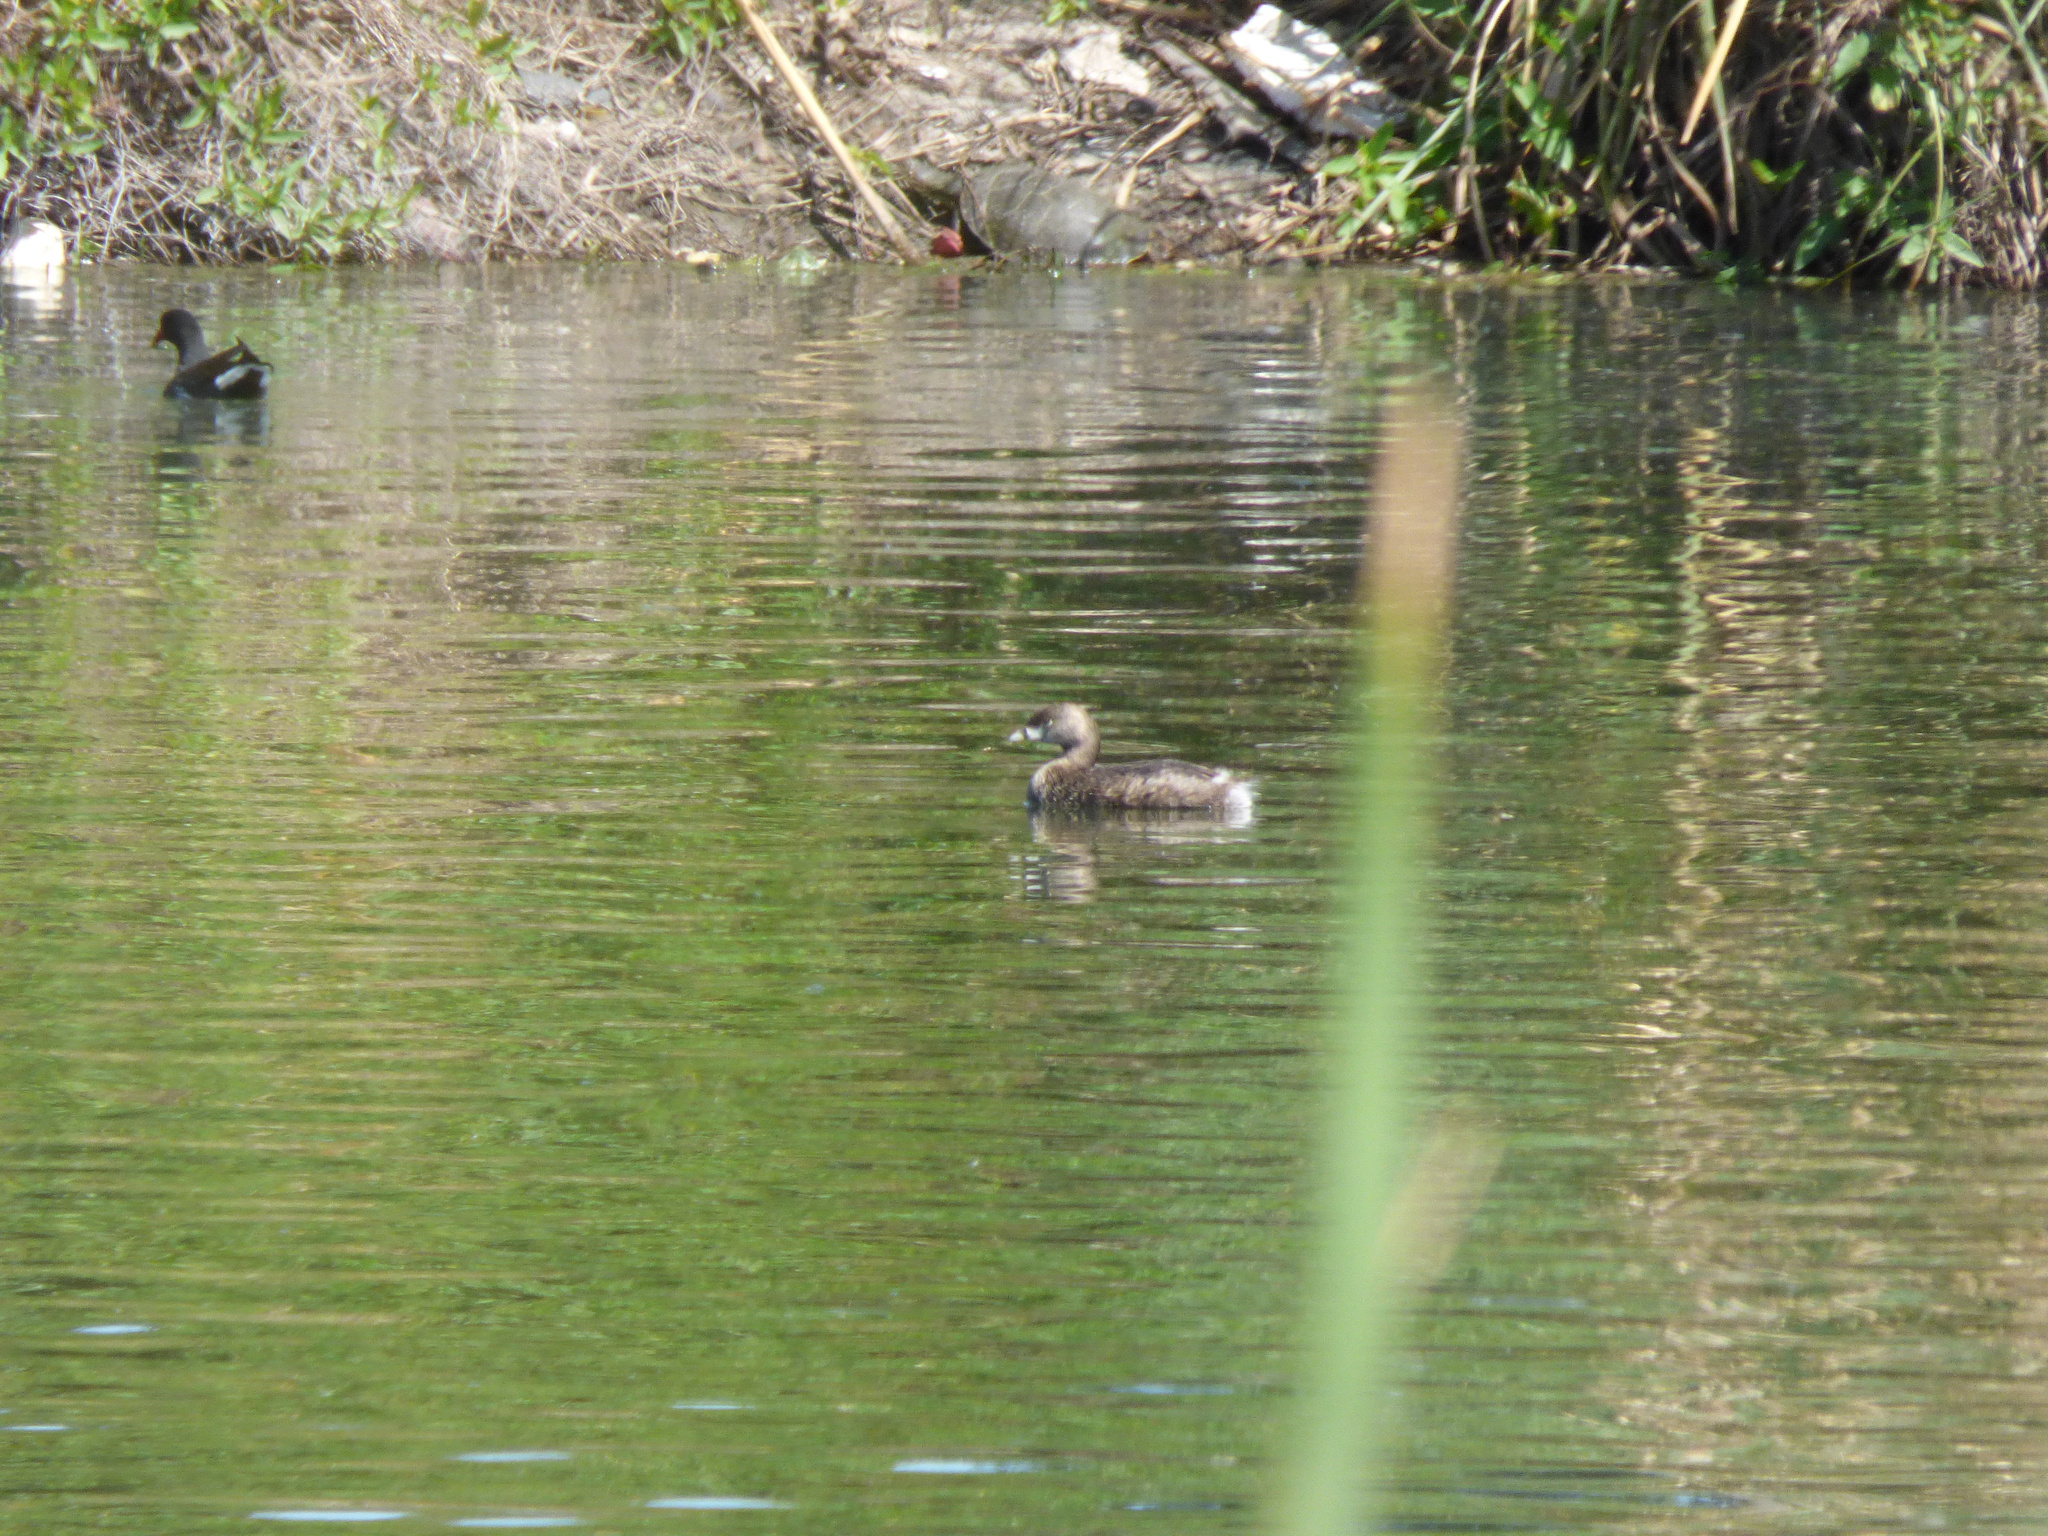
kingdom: Animalia
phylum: Chordata
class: Aves
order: Podicipediformes
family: Podicipedidae
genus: Podilymbus
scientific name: Podilymbus podiceps
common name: Pied-billed grebe
